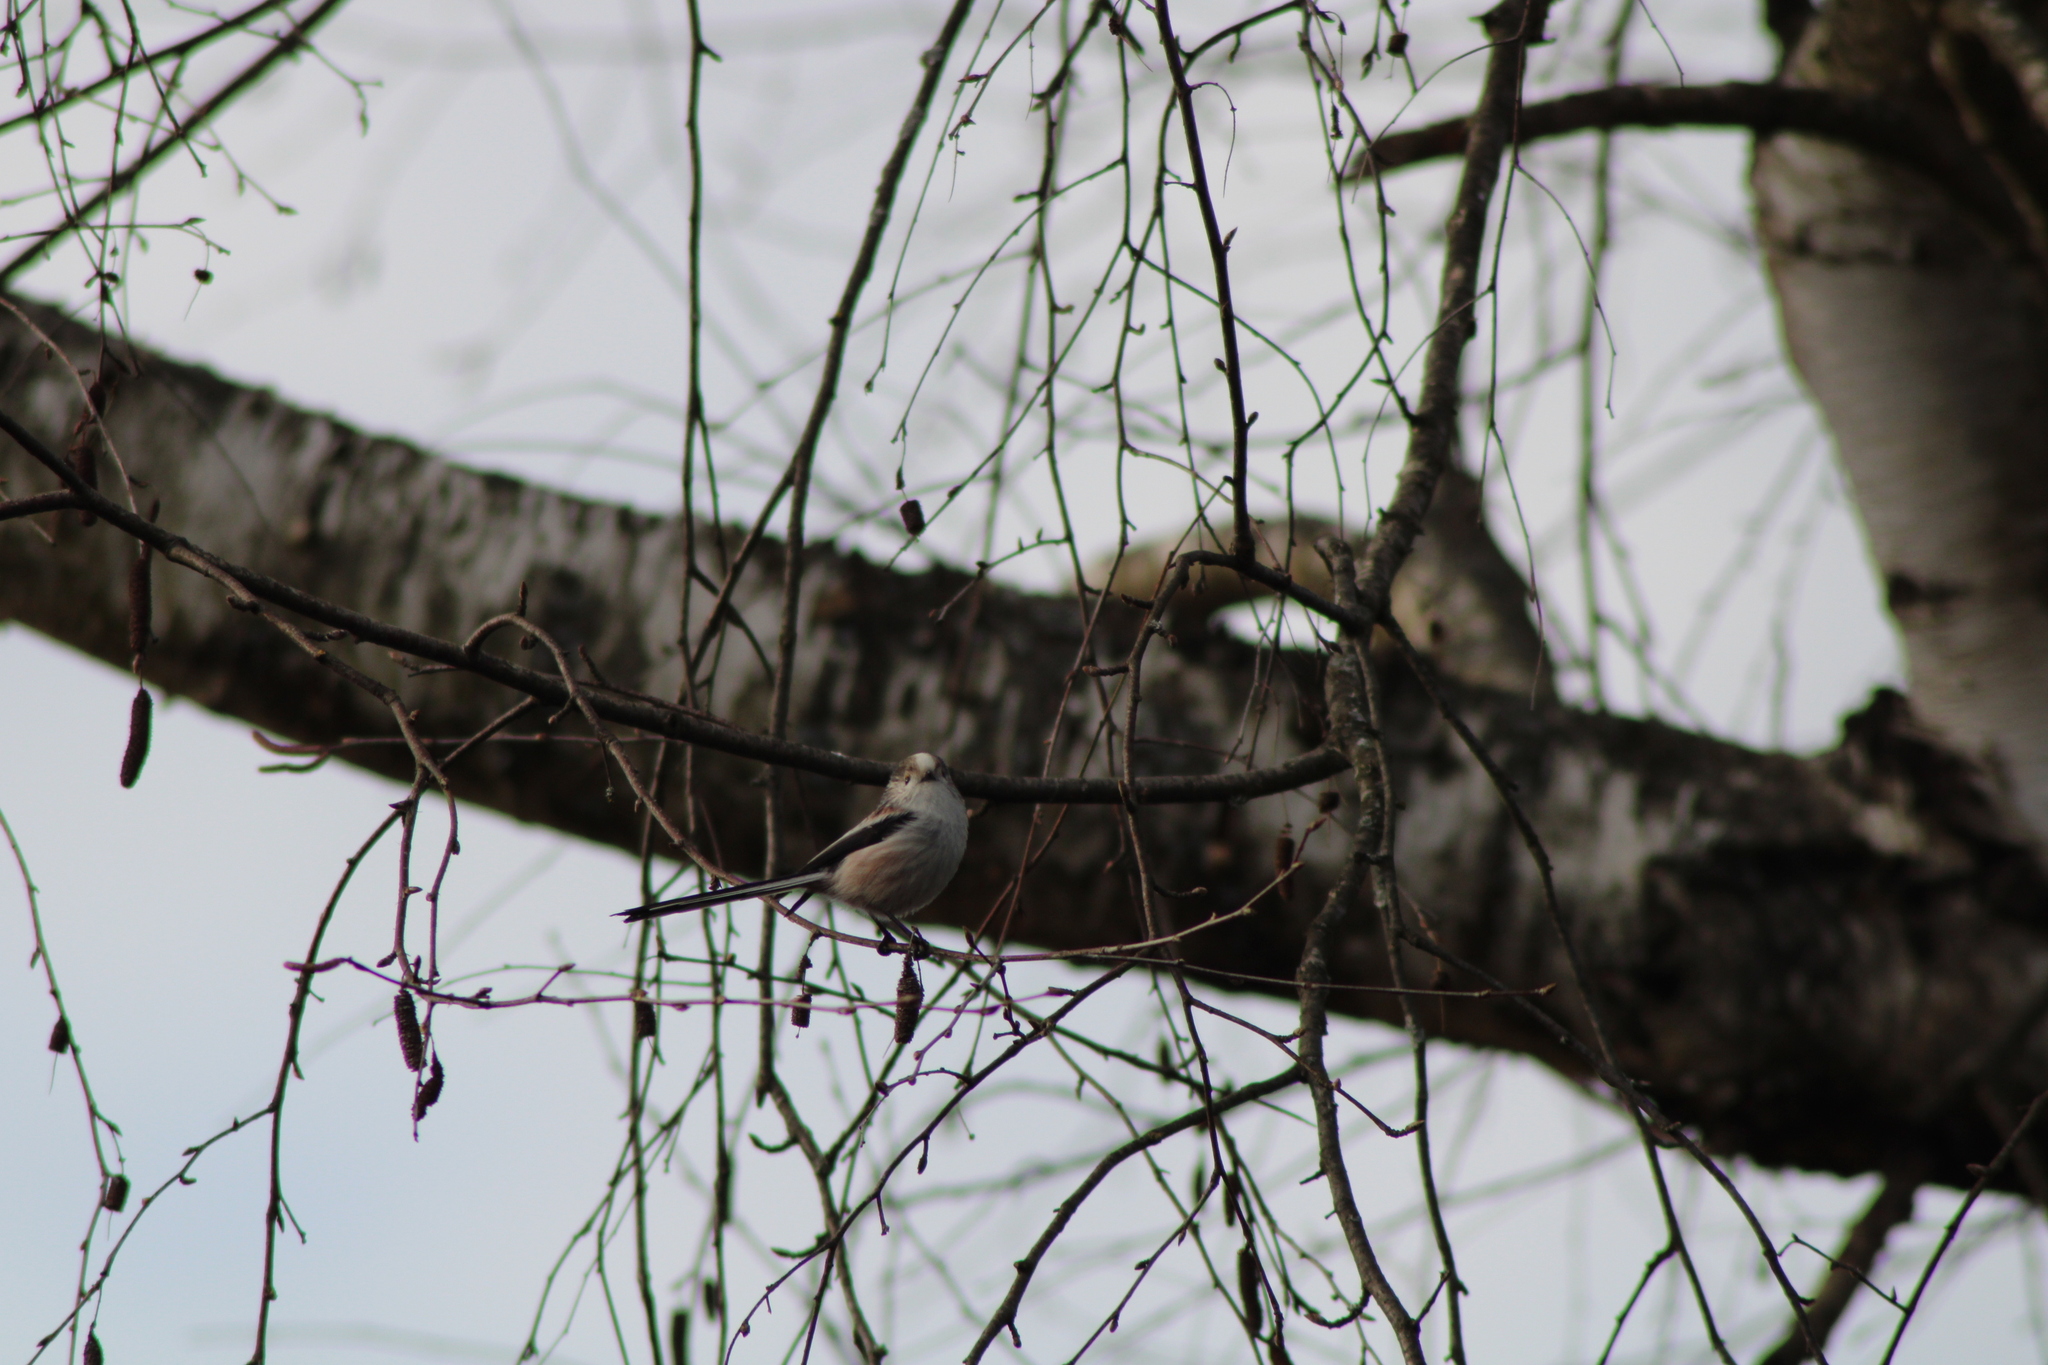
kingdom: Animalia
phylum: Chordata
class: Aves
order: Passeriformes
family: Aegithalidae
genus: Aegithalos
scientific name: Aegithalos caudatus
